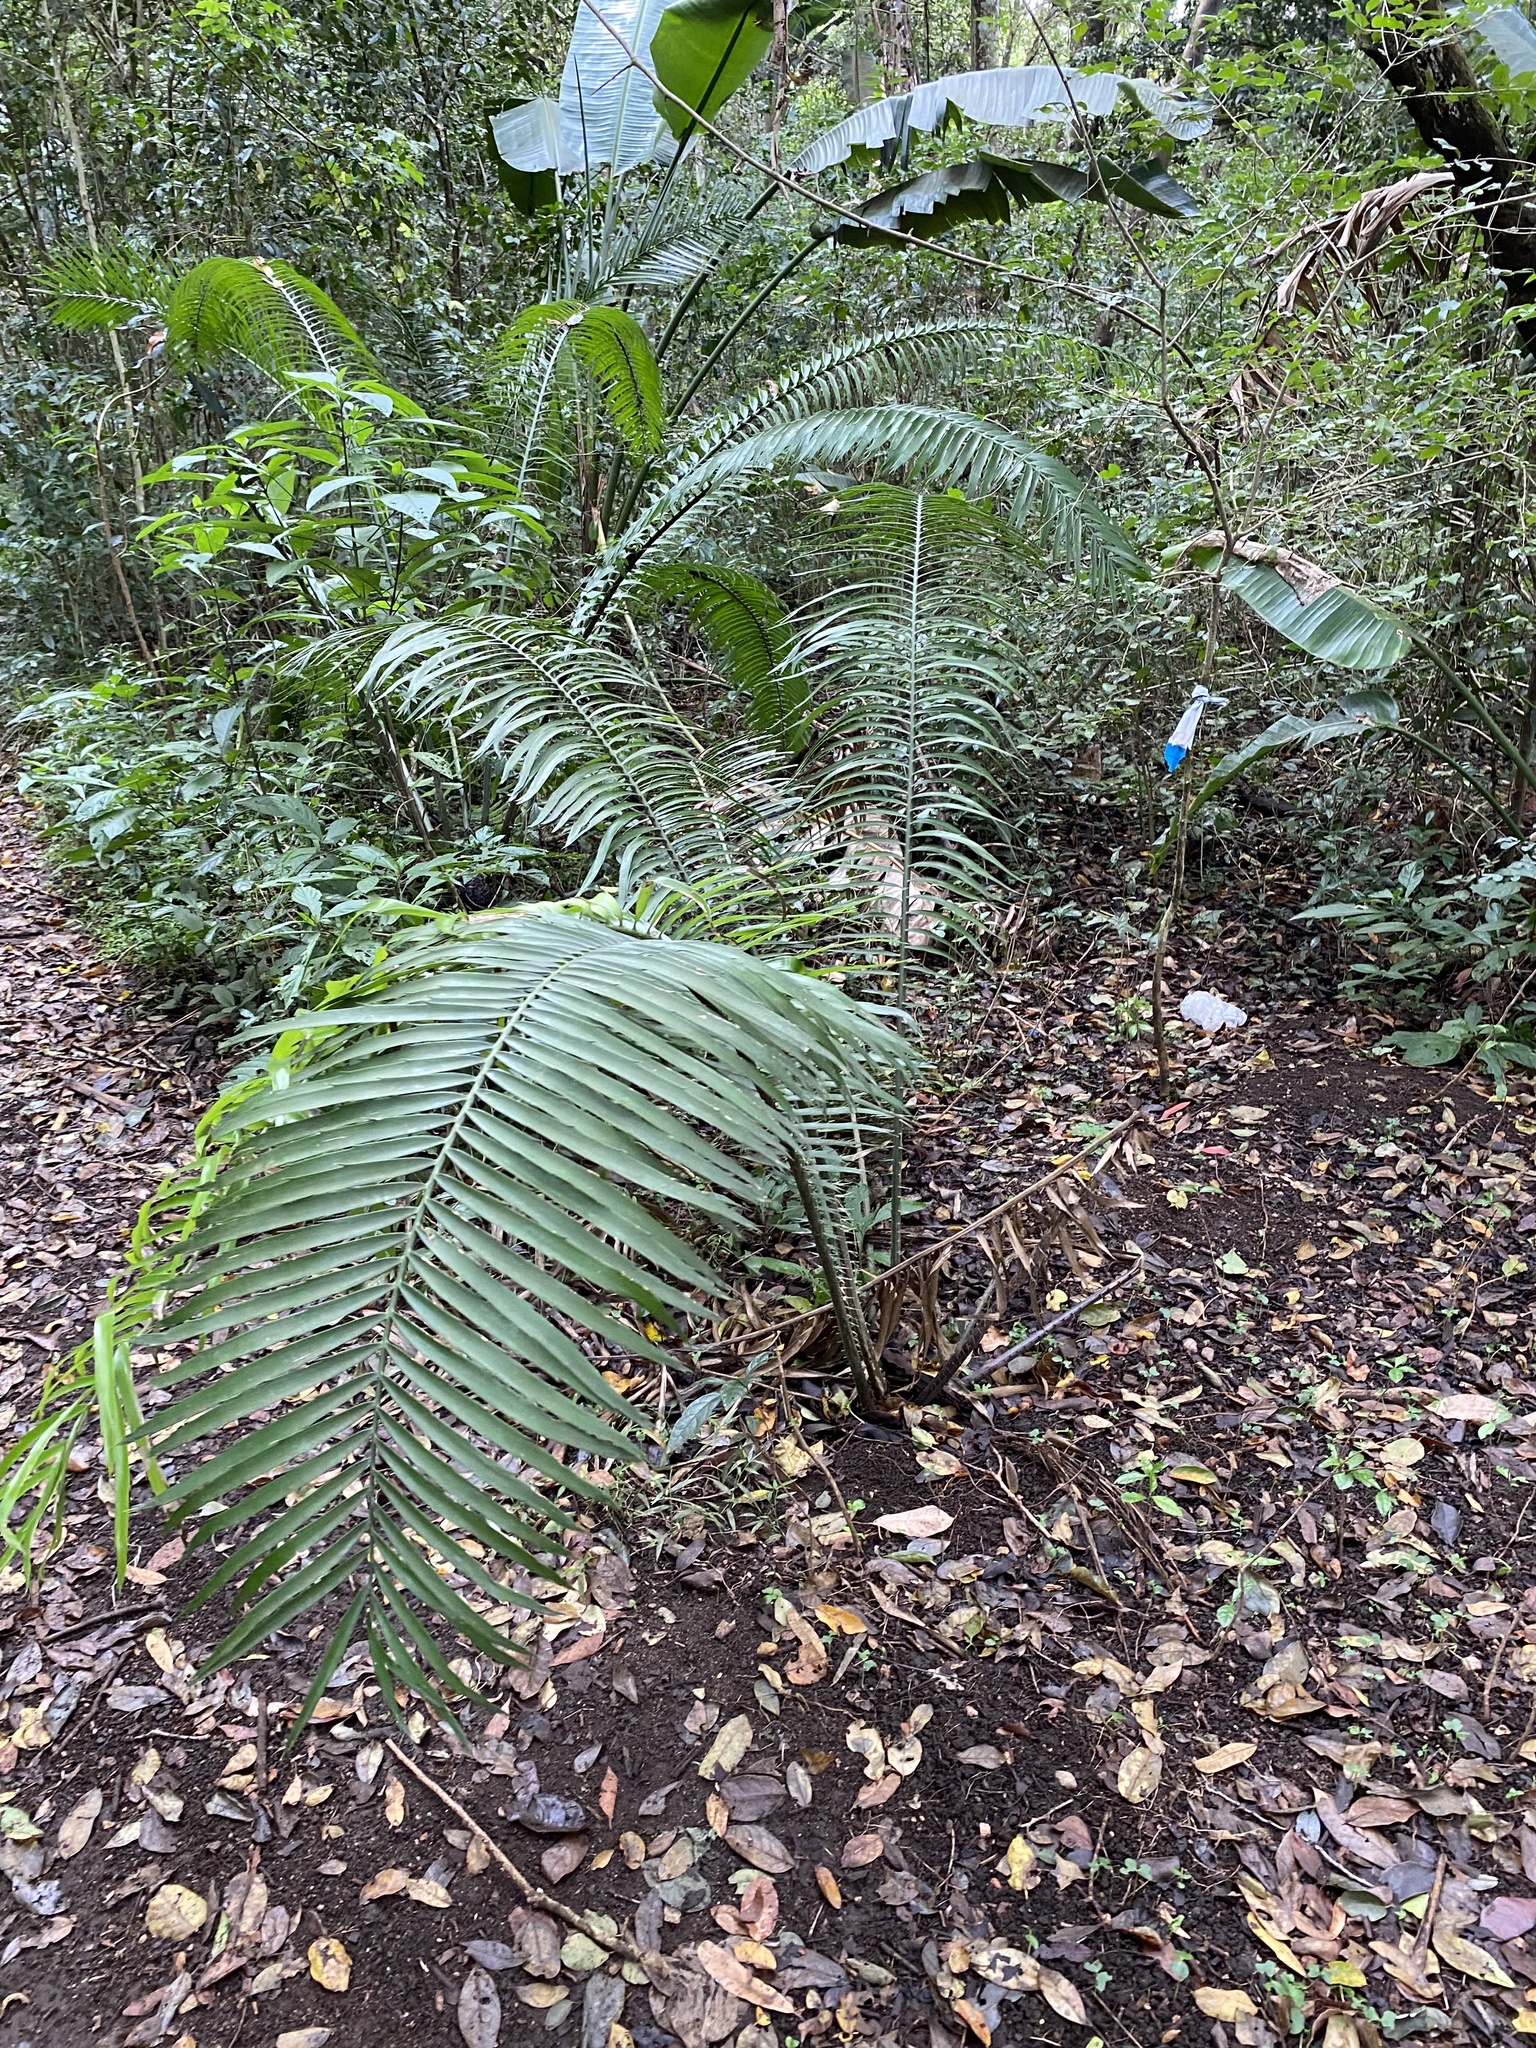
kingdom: Plantae
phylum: Tracheophyta
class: Cycadopsida
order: Cycadales
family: Zamiaceae
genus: Encephalartos
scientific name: Encephalartos villosus
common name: Poor man's cycad
